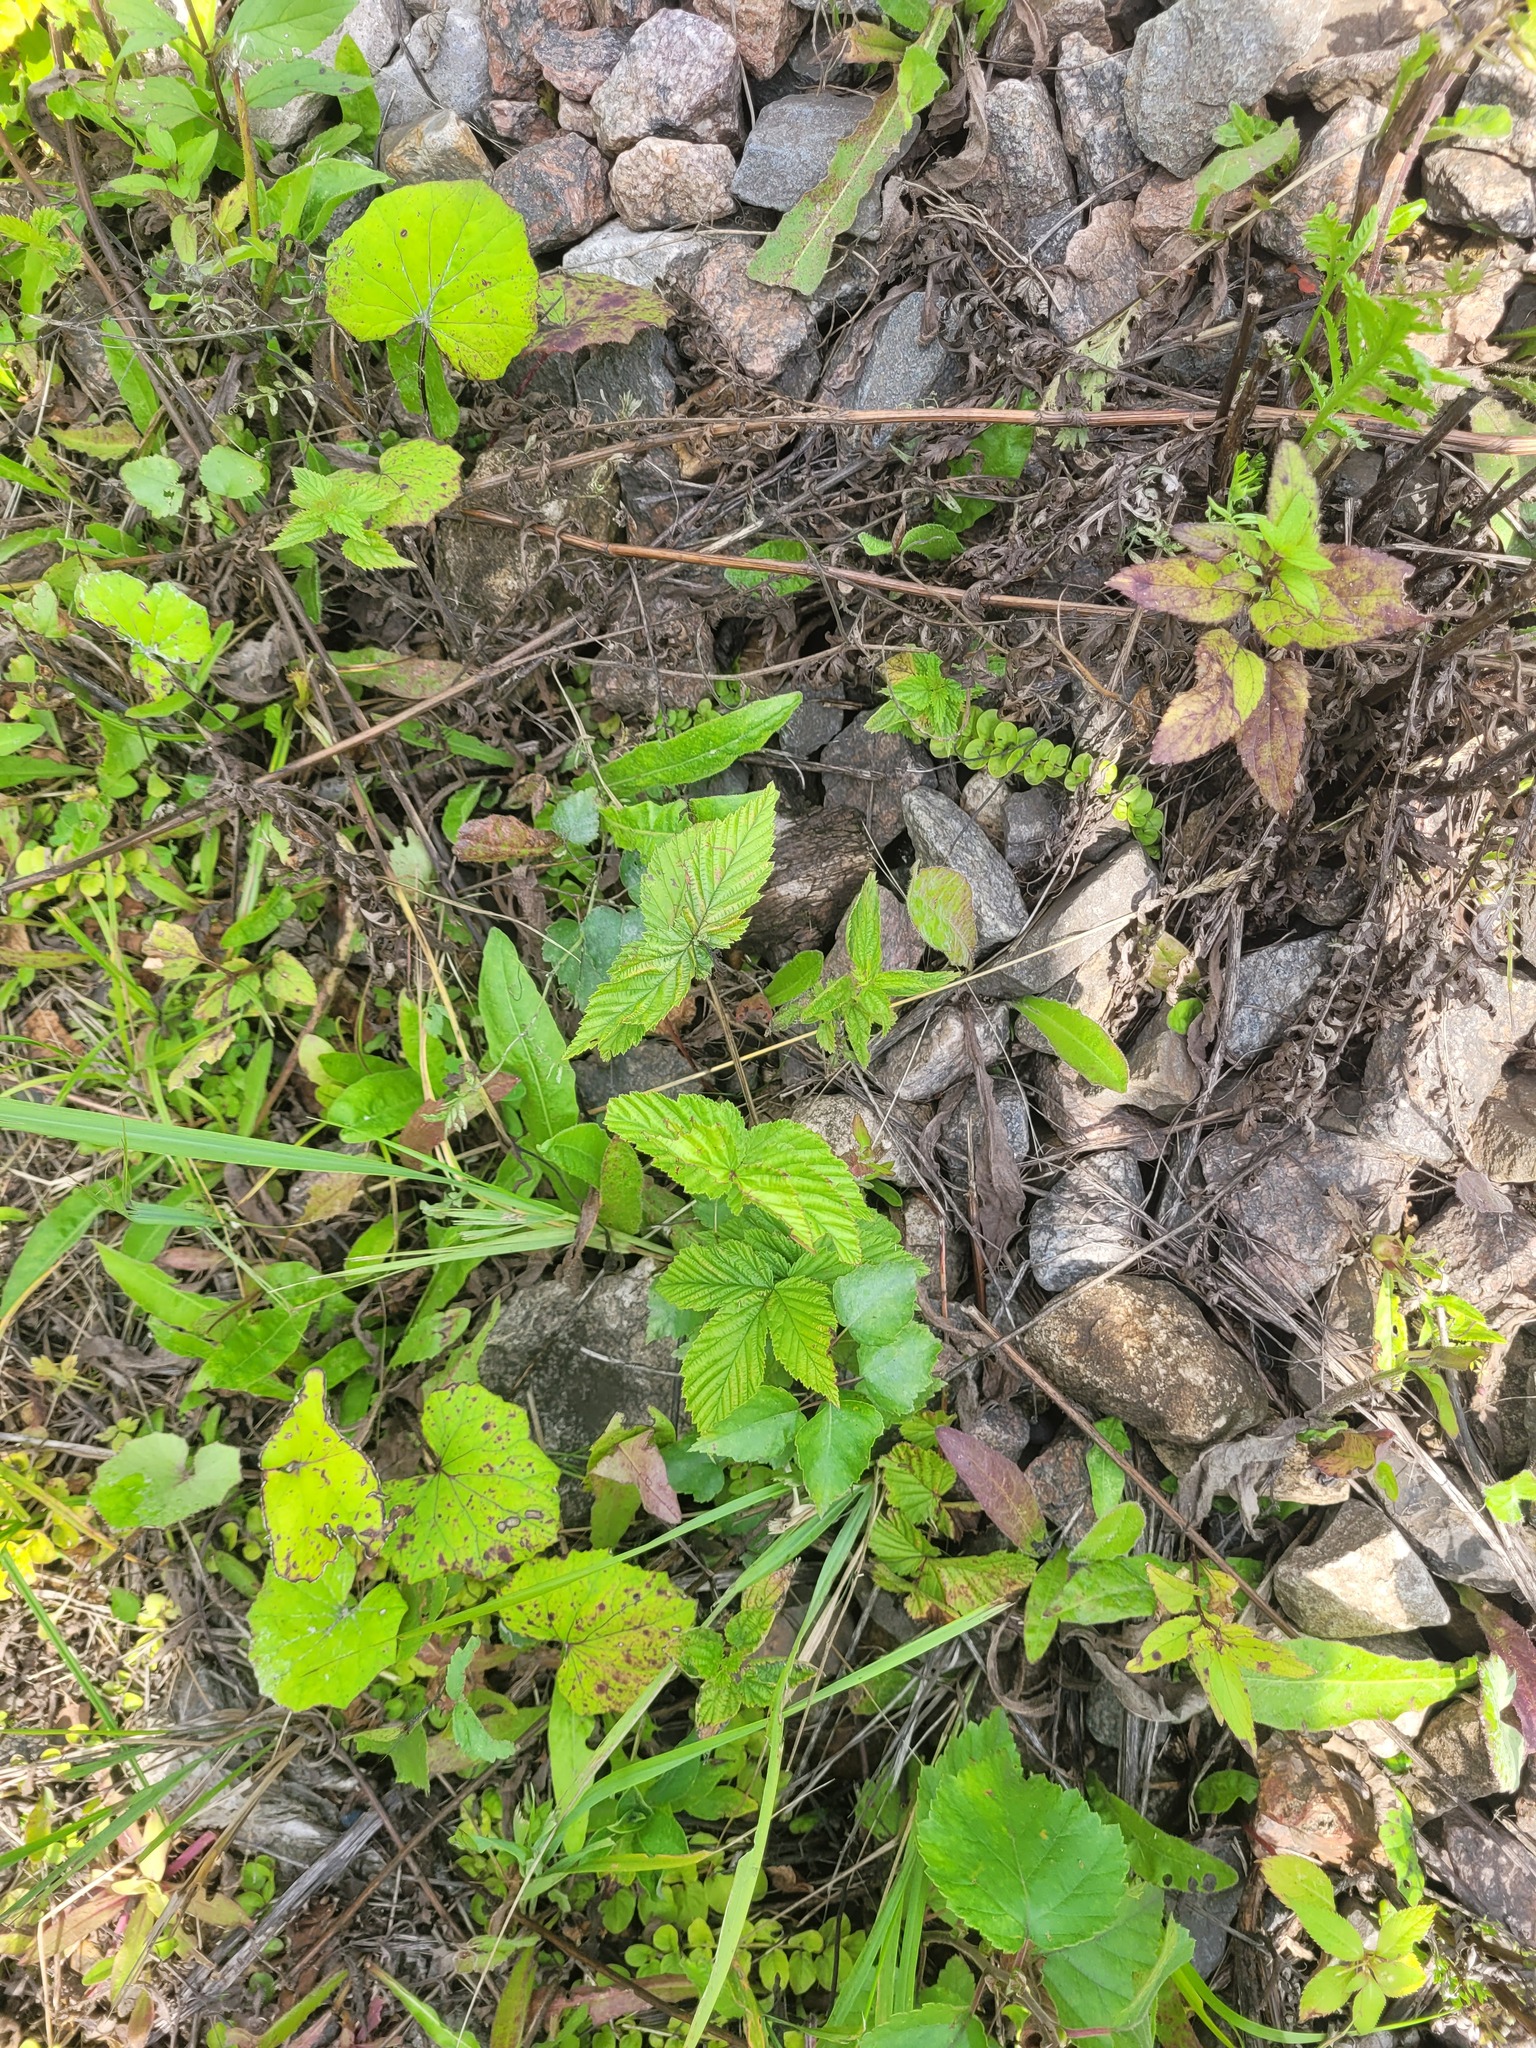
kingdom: Plantae
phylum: Tracheophyta
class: Magnoliopsida
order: Rosales
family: Rosaceae
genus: Filipendula
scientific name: Filipendula ulmaria
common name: Meadowsweet
